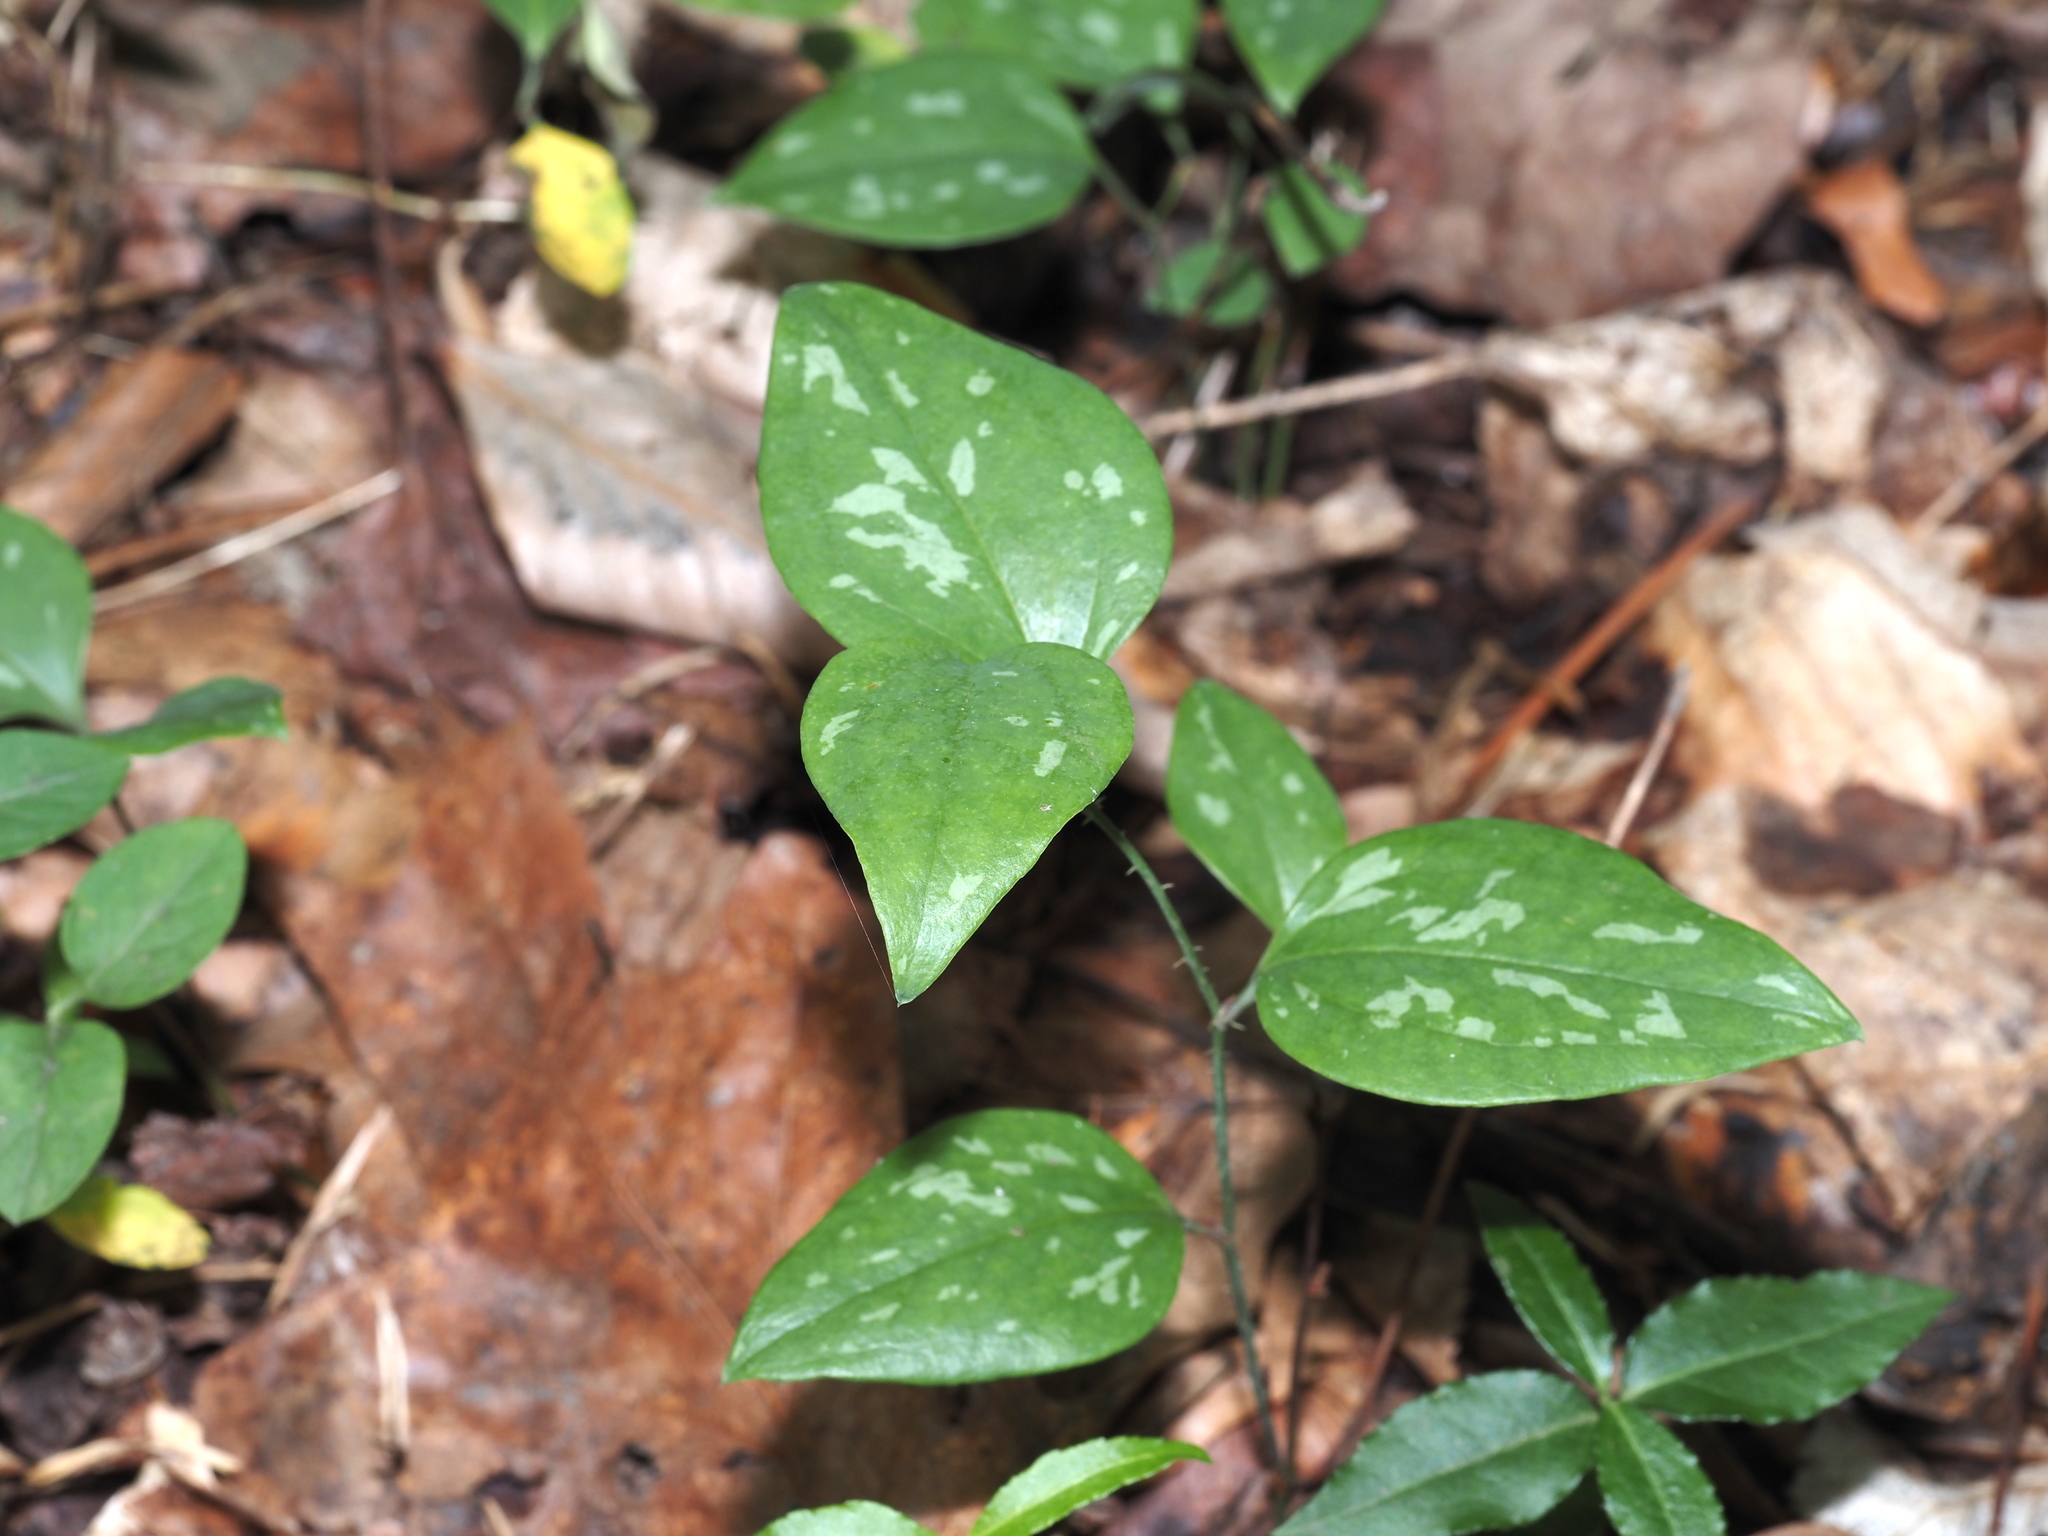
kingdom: Plantae
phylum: Tracheophyta
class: Liliopsida
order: Liliales
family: Smilacaceae
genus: Smilax
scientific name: Smilax glauca
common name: Cat greenbrier
